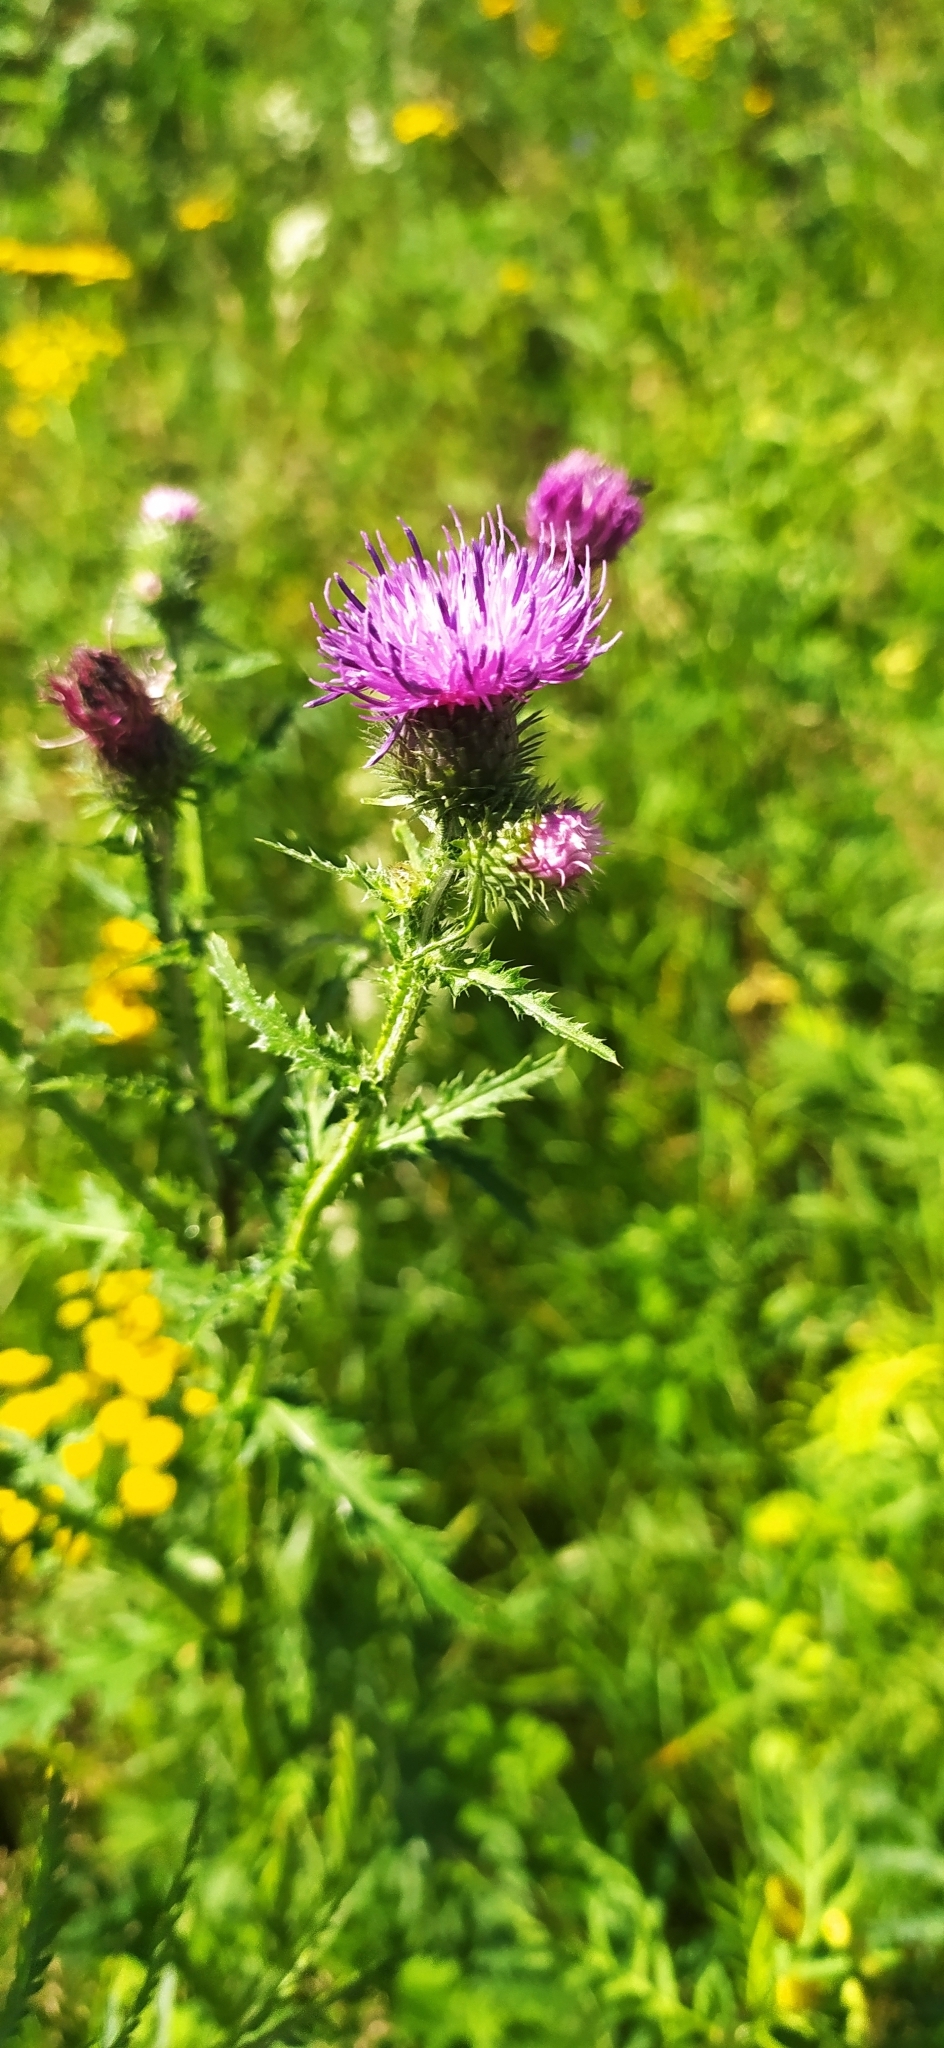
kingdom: Plantae
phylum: Tracheophyta
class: Magnoliopsida
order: Asterales
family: Asteraceae
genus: Carduus
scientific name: Carduus crispus
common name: Welted thistle
